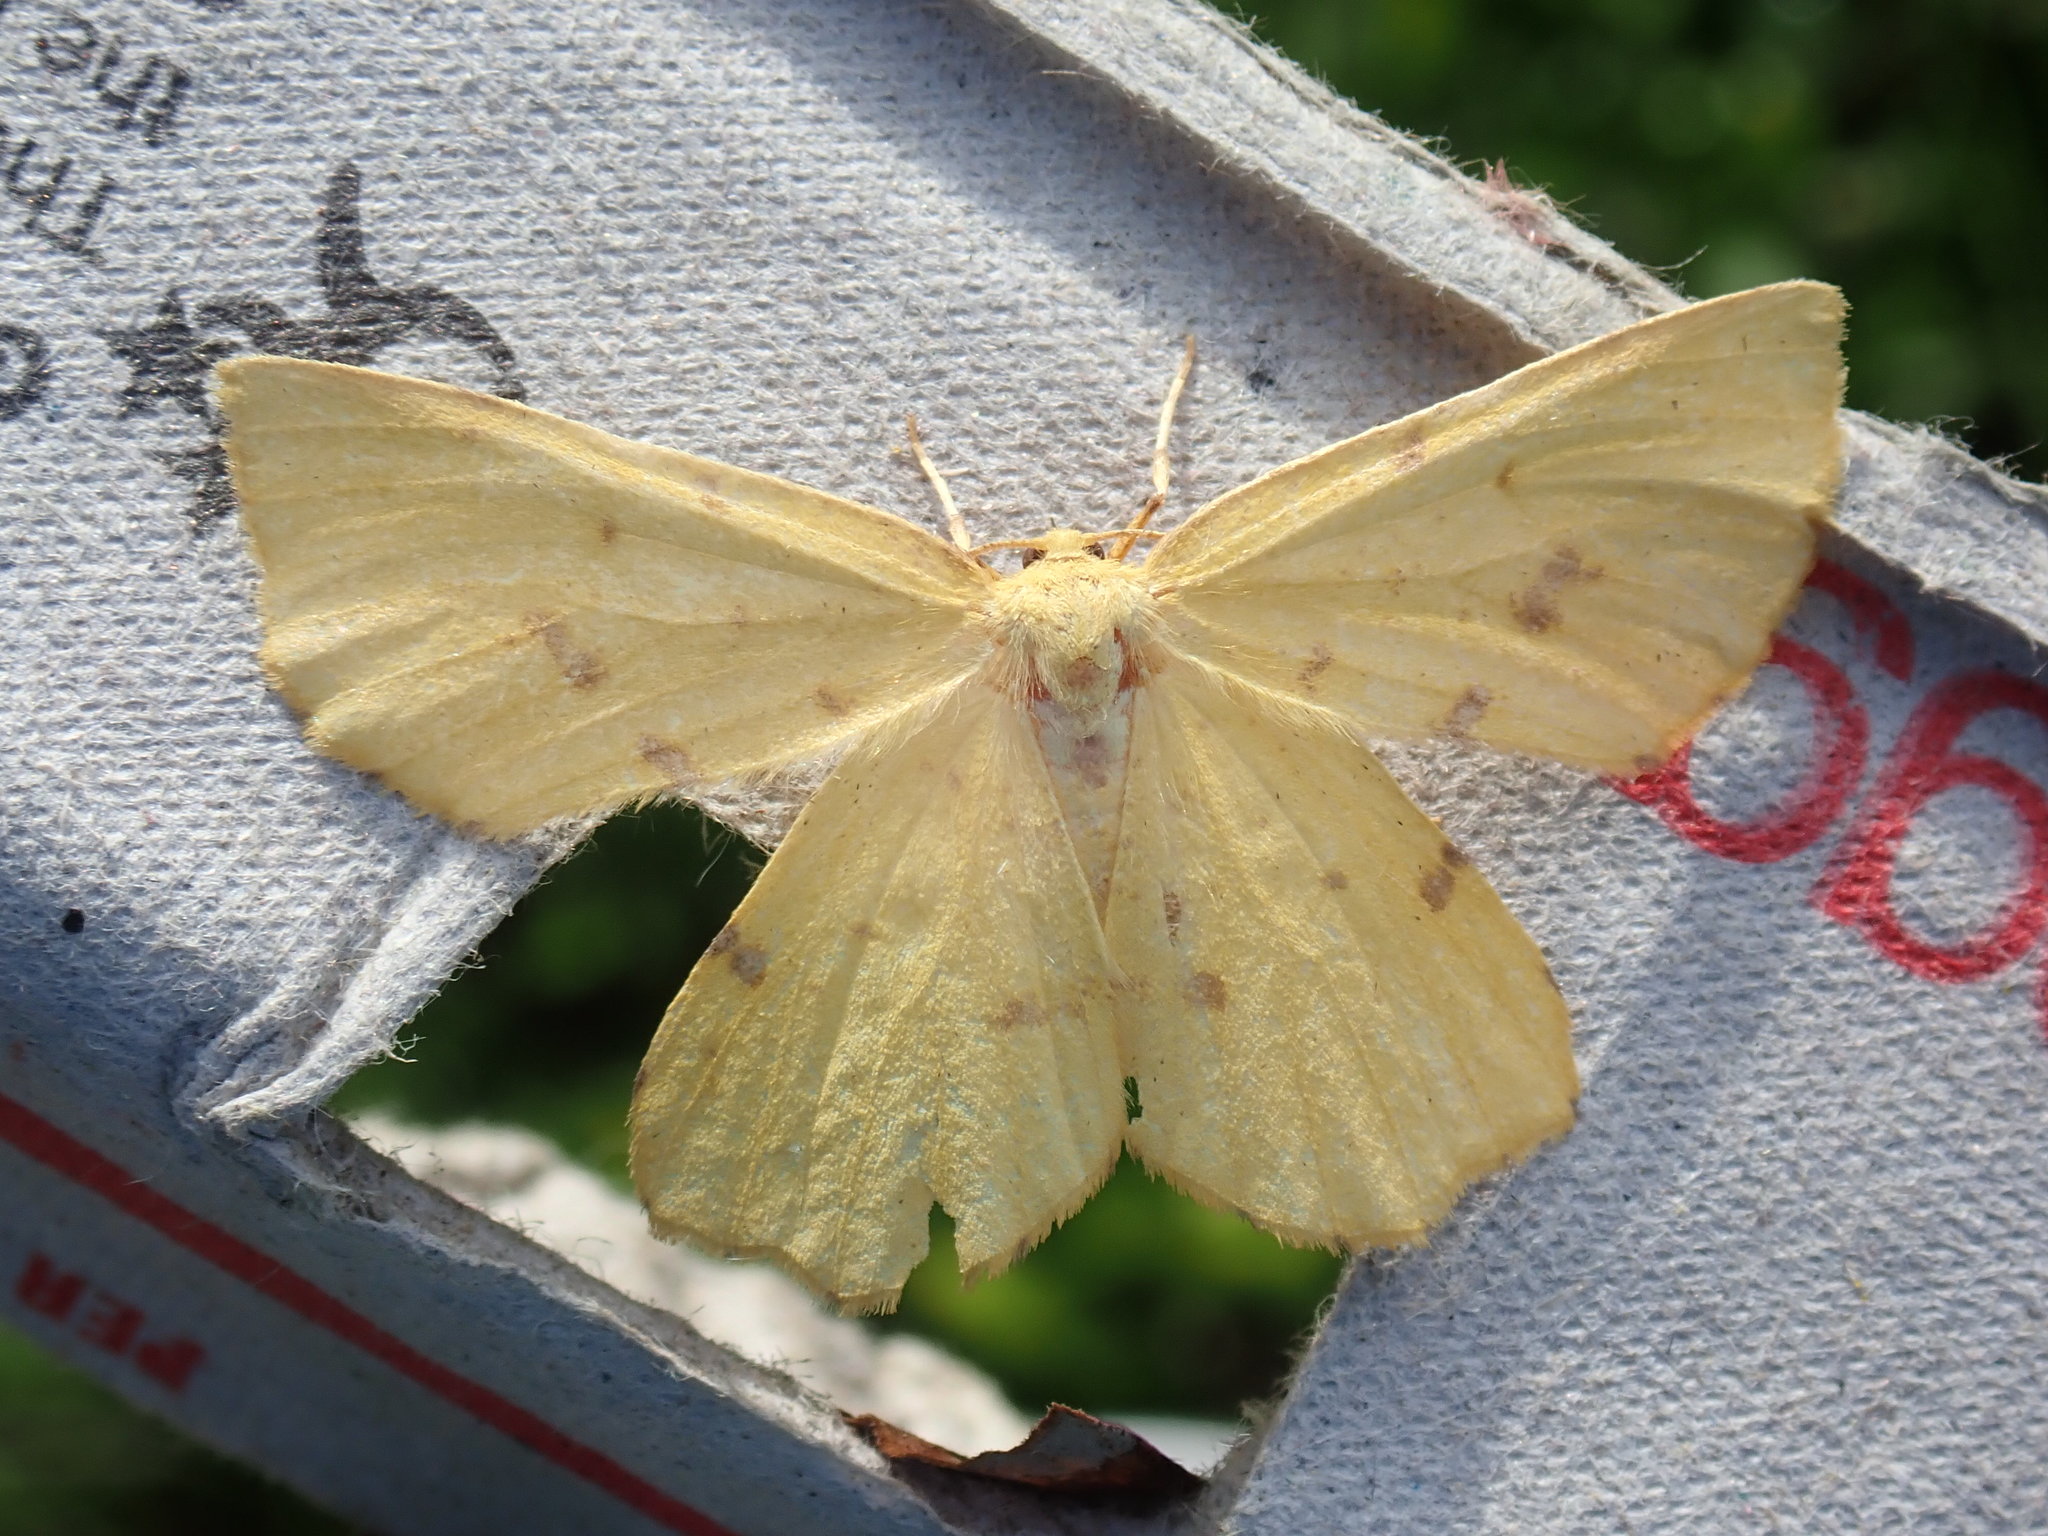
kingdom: Animalia
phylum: Arthropoda
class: Insecta
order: Lepidoptera
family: Geometridae
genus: Xanthotype
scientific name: Xanthotype
